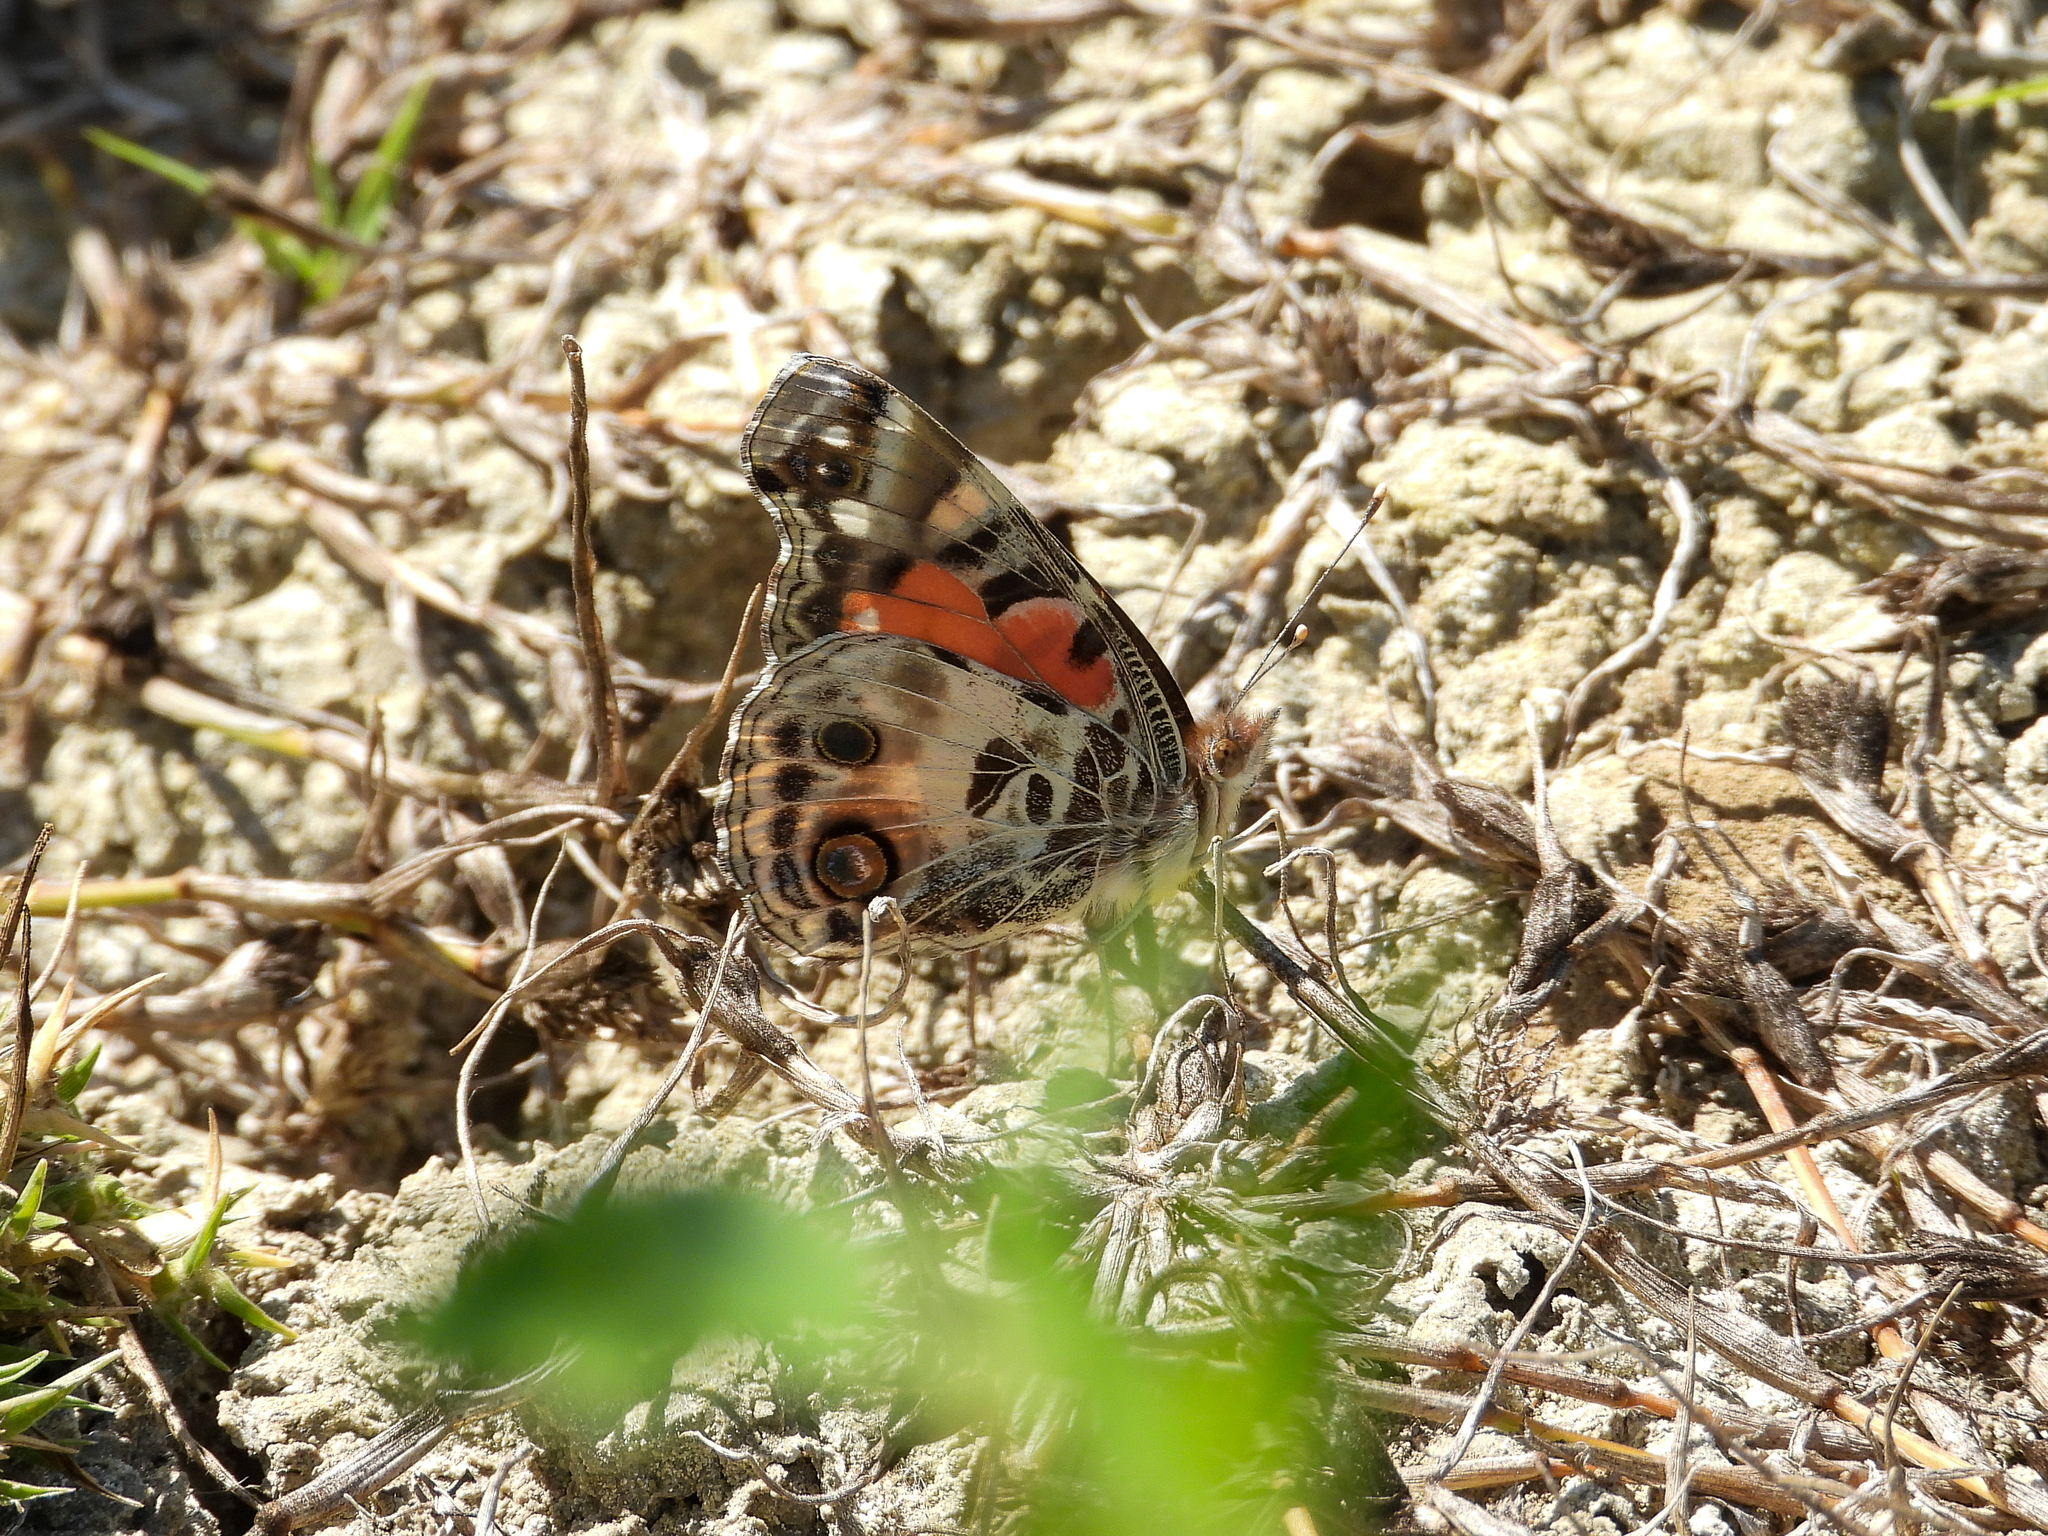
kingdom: Animalia
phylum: Arthropoda
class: Insecta
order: Lepidoptera
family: Nymphalidae
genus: Vanessa
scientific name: Vanessa virginiensis
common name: American lady
